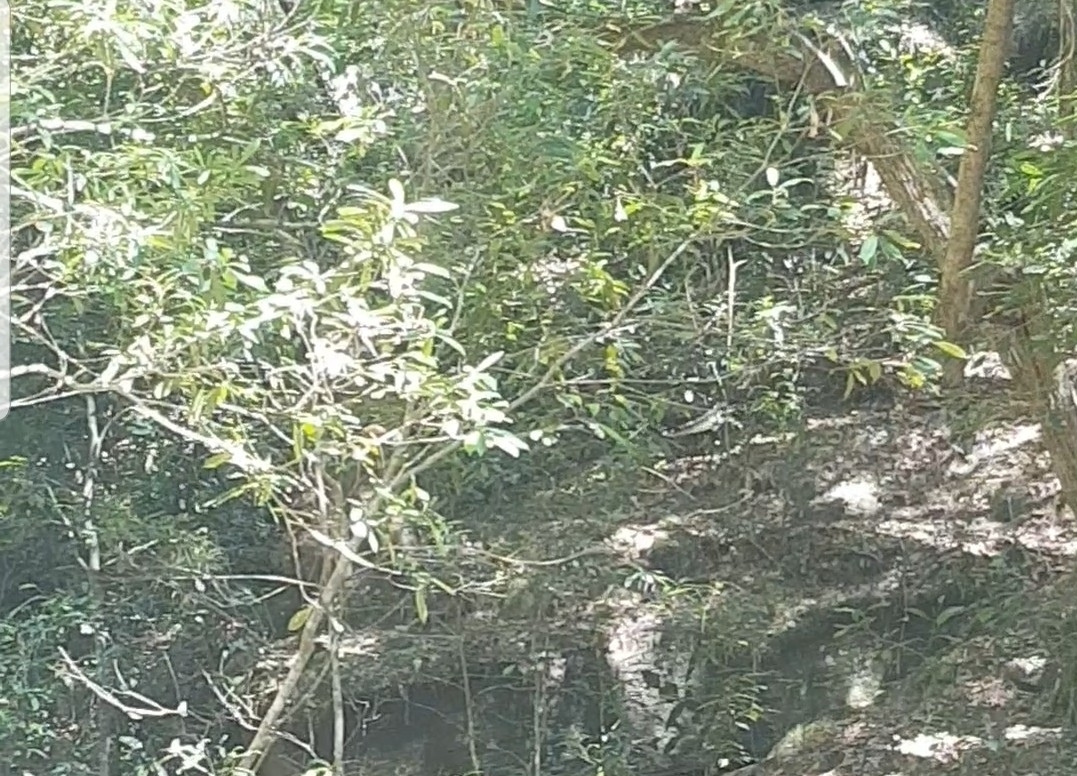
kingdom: Animalia
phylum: Chordata
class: Aves
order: Passeriformes
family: Menuridae
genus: Menura
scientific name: Menura novaehollandiae
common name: Superb lyrebird
